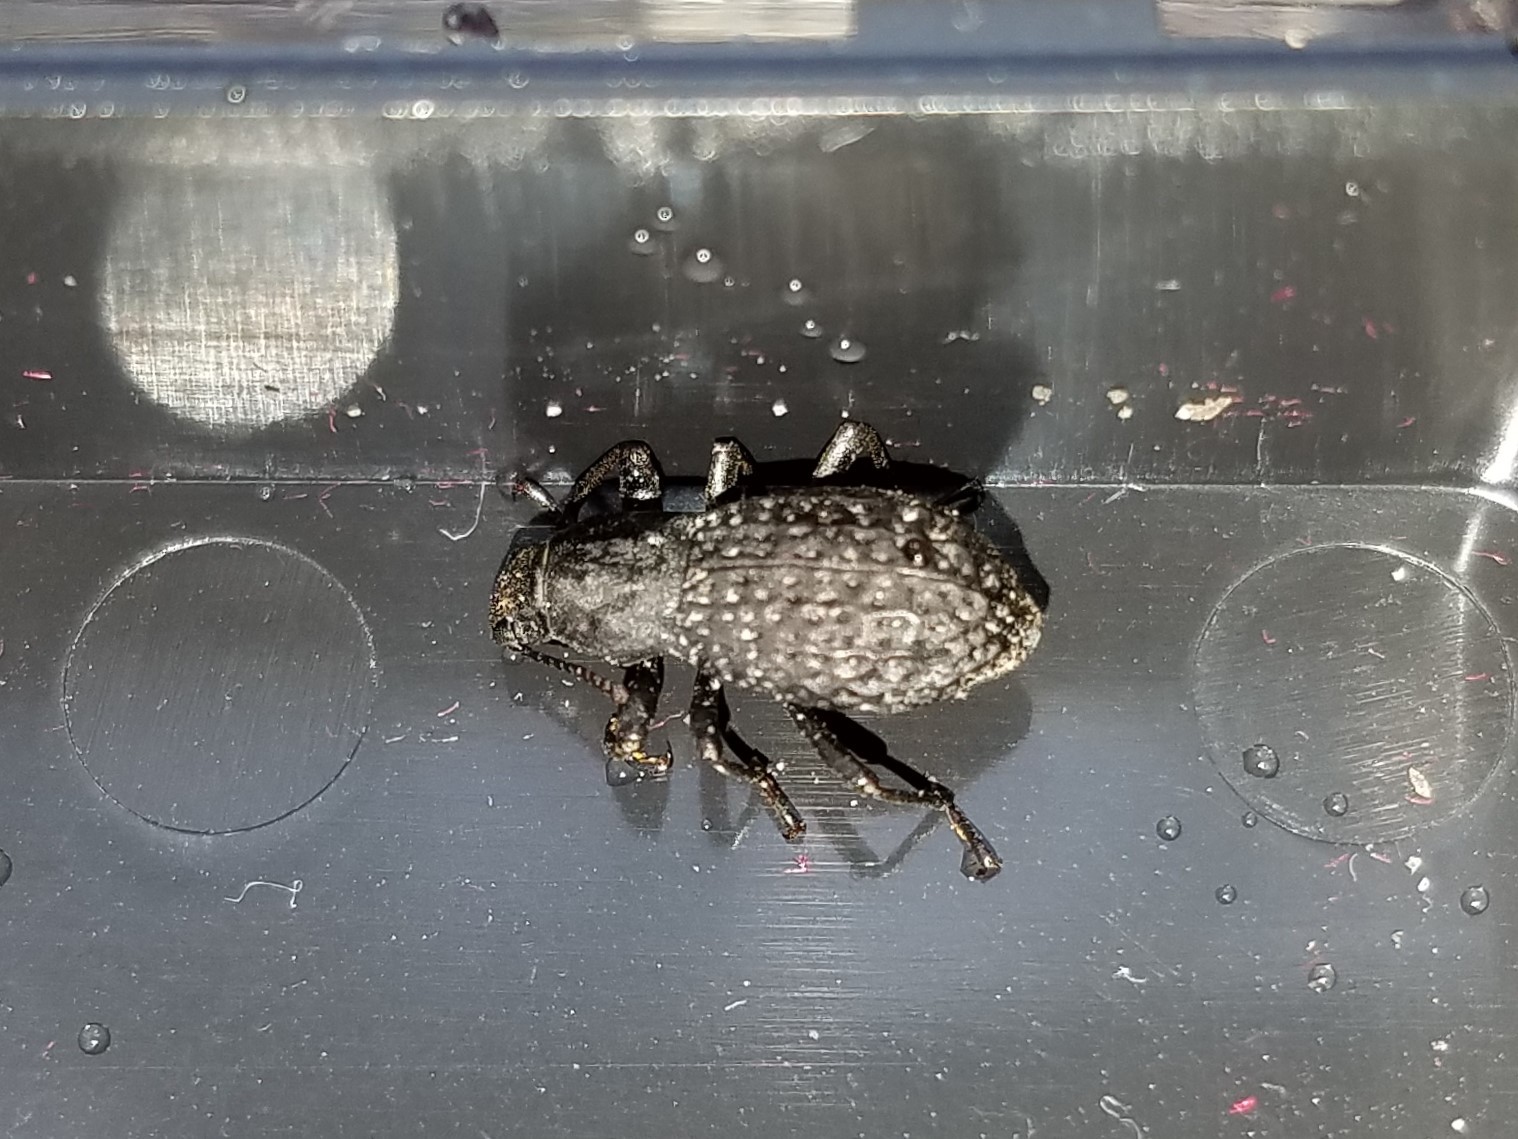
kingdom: Animalia
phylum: Arthropoda
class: Insecta
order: Coleoptera
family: Tenebrionidae
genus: Polypleurus
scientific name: Polypleurus perforatus
